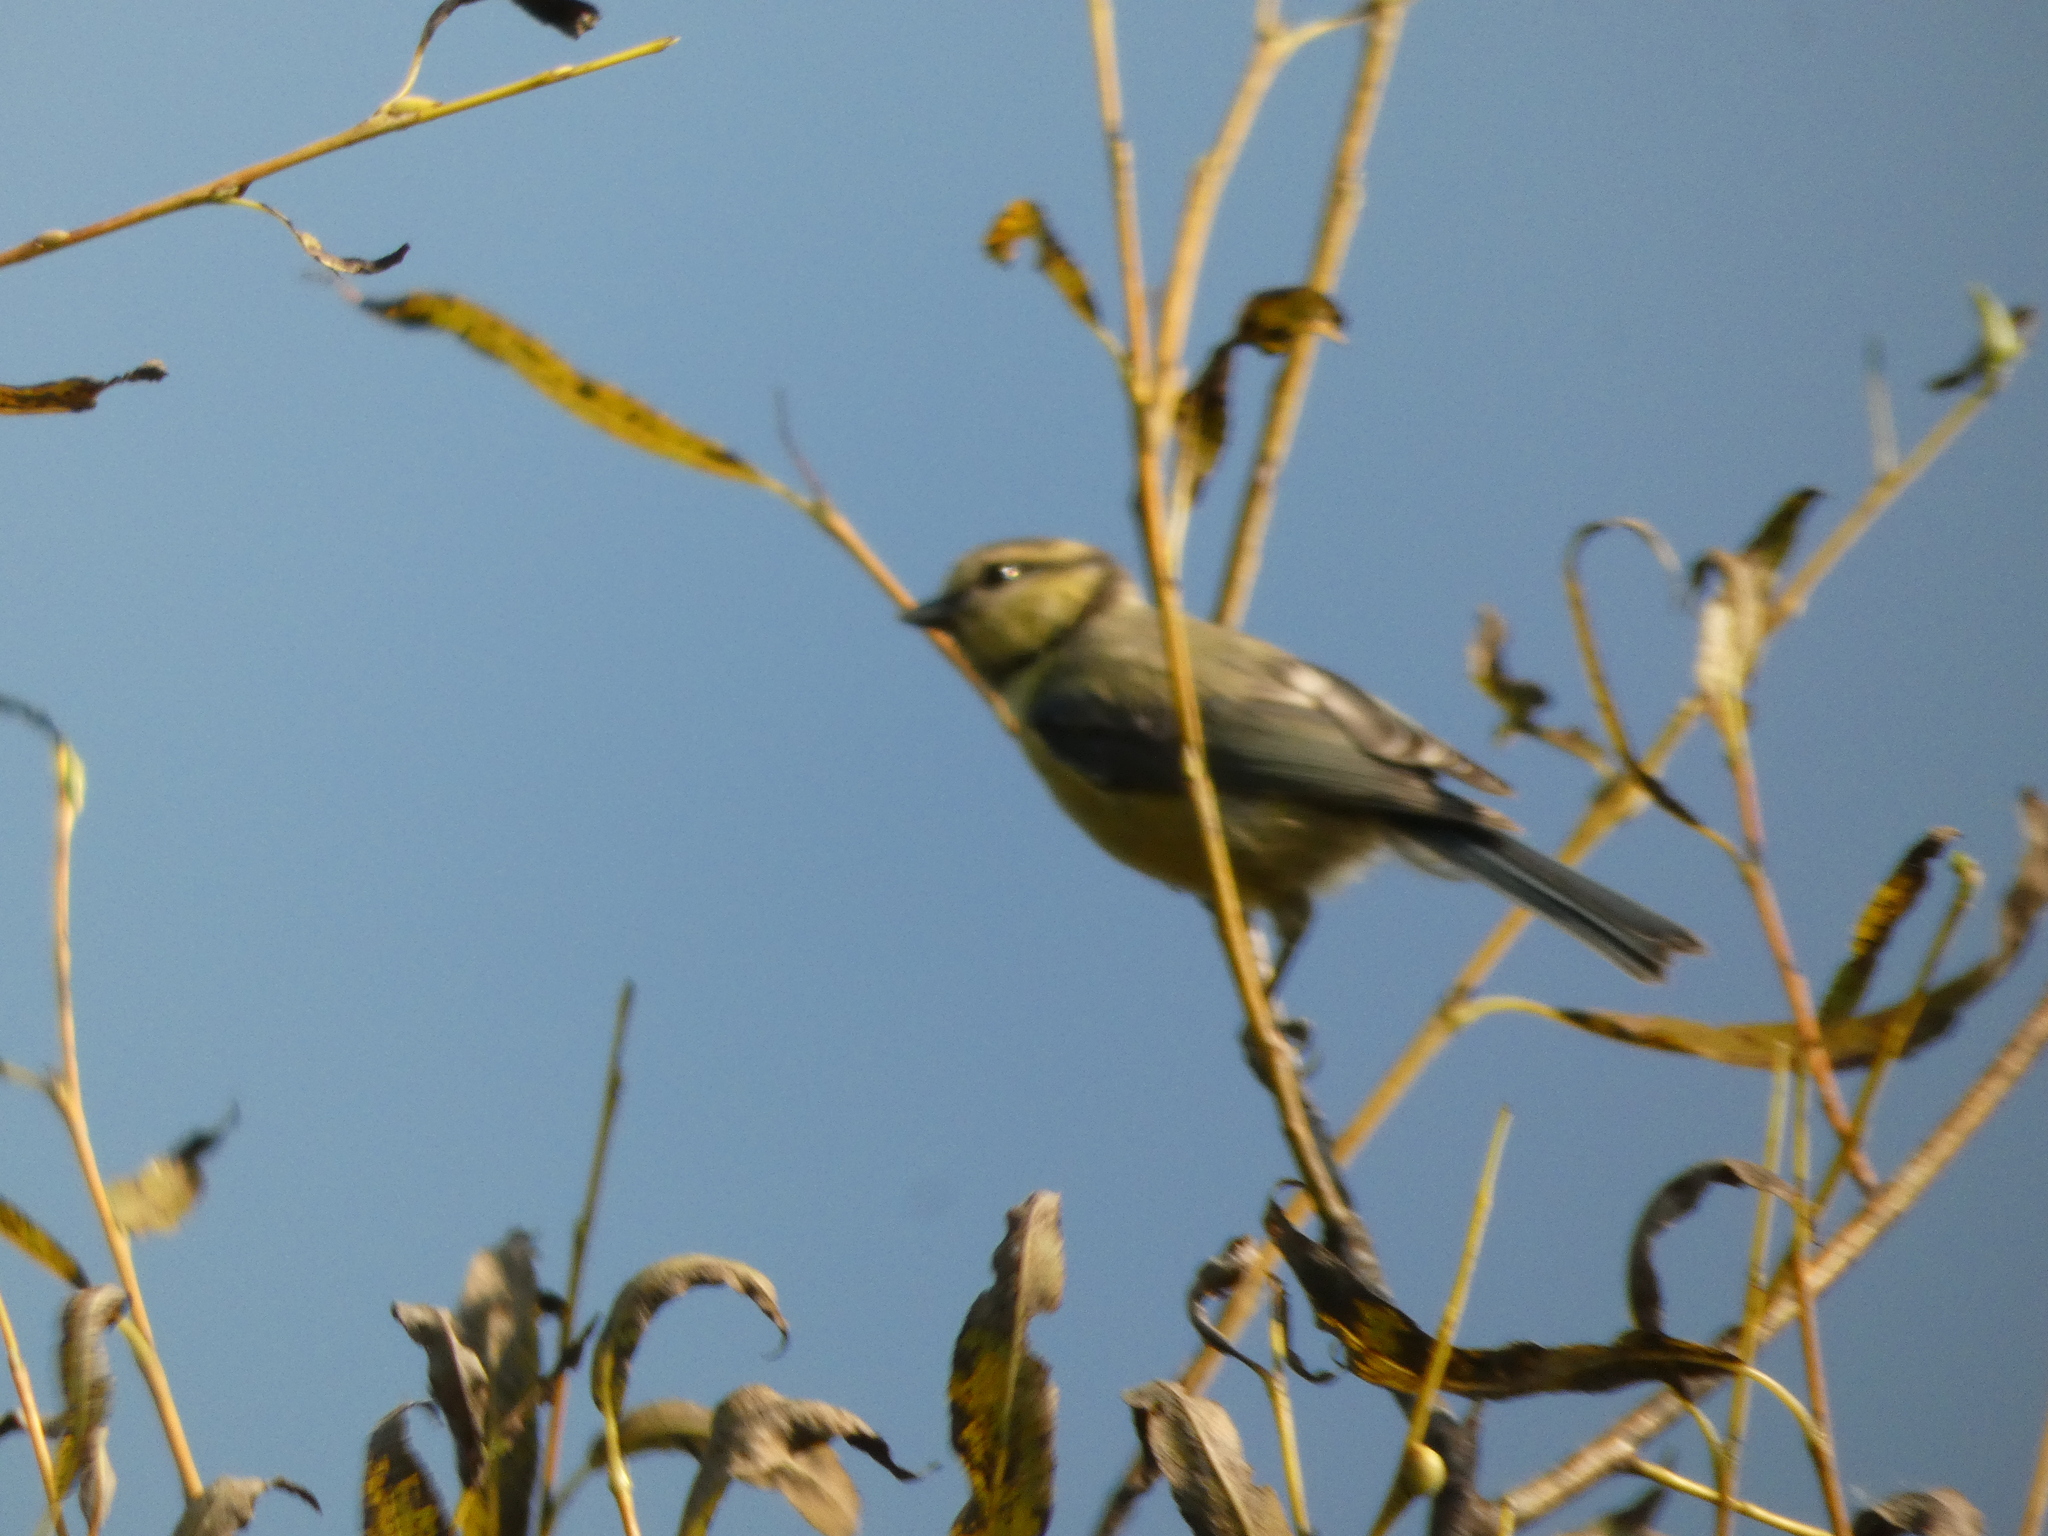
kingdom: Animalia
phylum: Chordata
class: Aves
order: Passeriformes
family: Paridae
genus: Cyanistes
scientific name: Cyanistes caeruleus
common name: Eurasian blue tit
